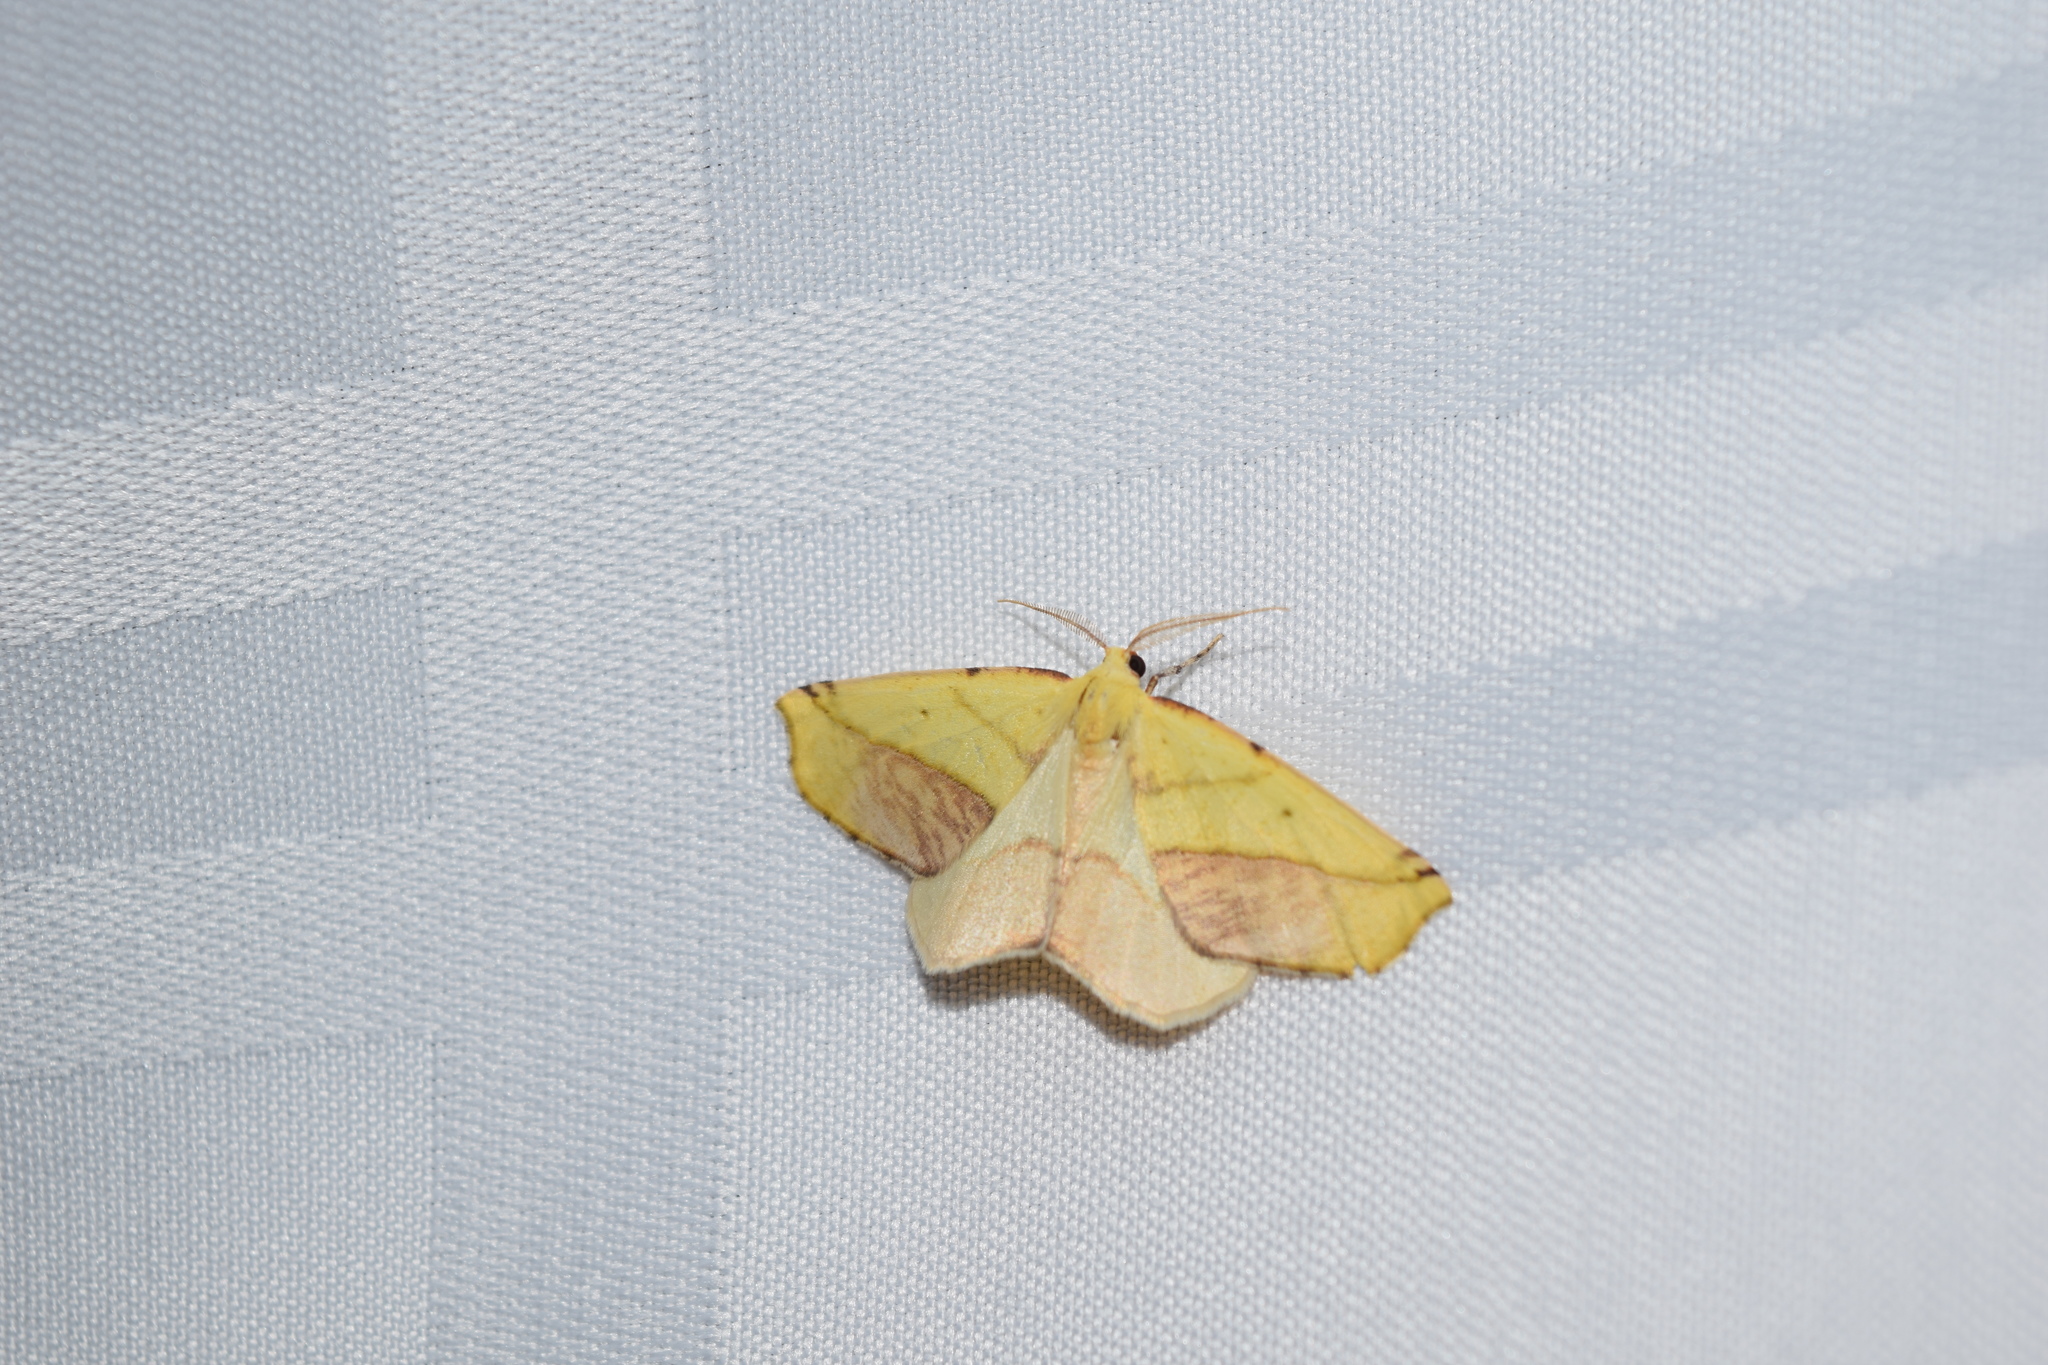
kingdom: Animalia
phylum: Arthropoda
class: Insecta
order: Lepidoptera
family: Geometridae
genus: Sicya
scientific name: Sicya macularia
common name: Sharp-lined yellow
